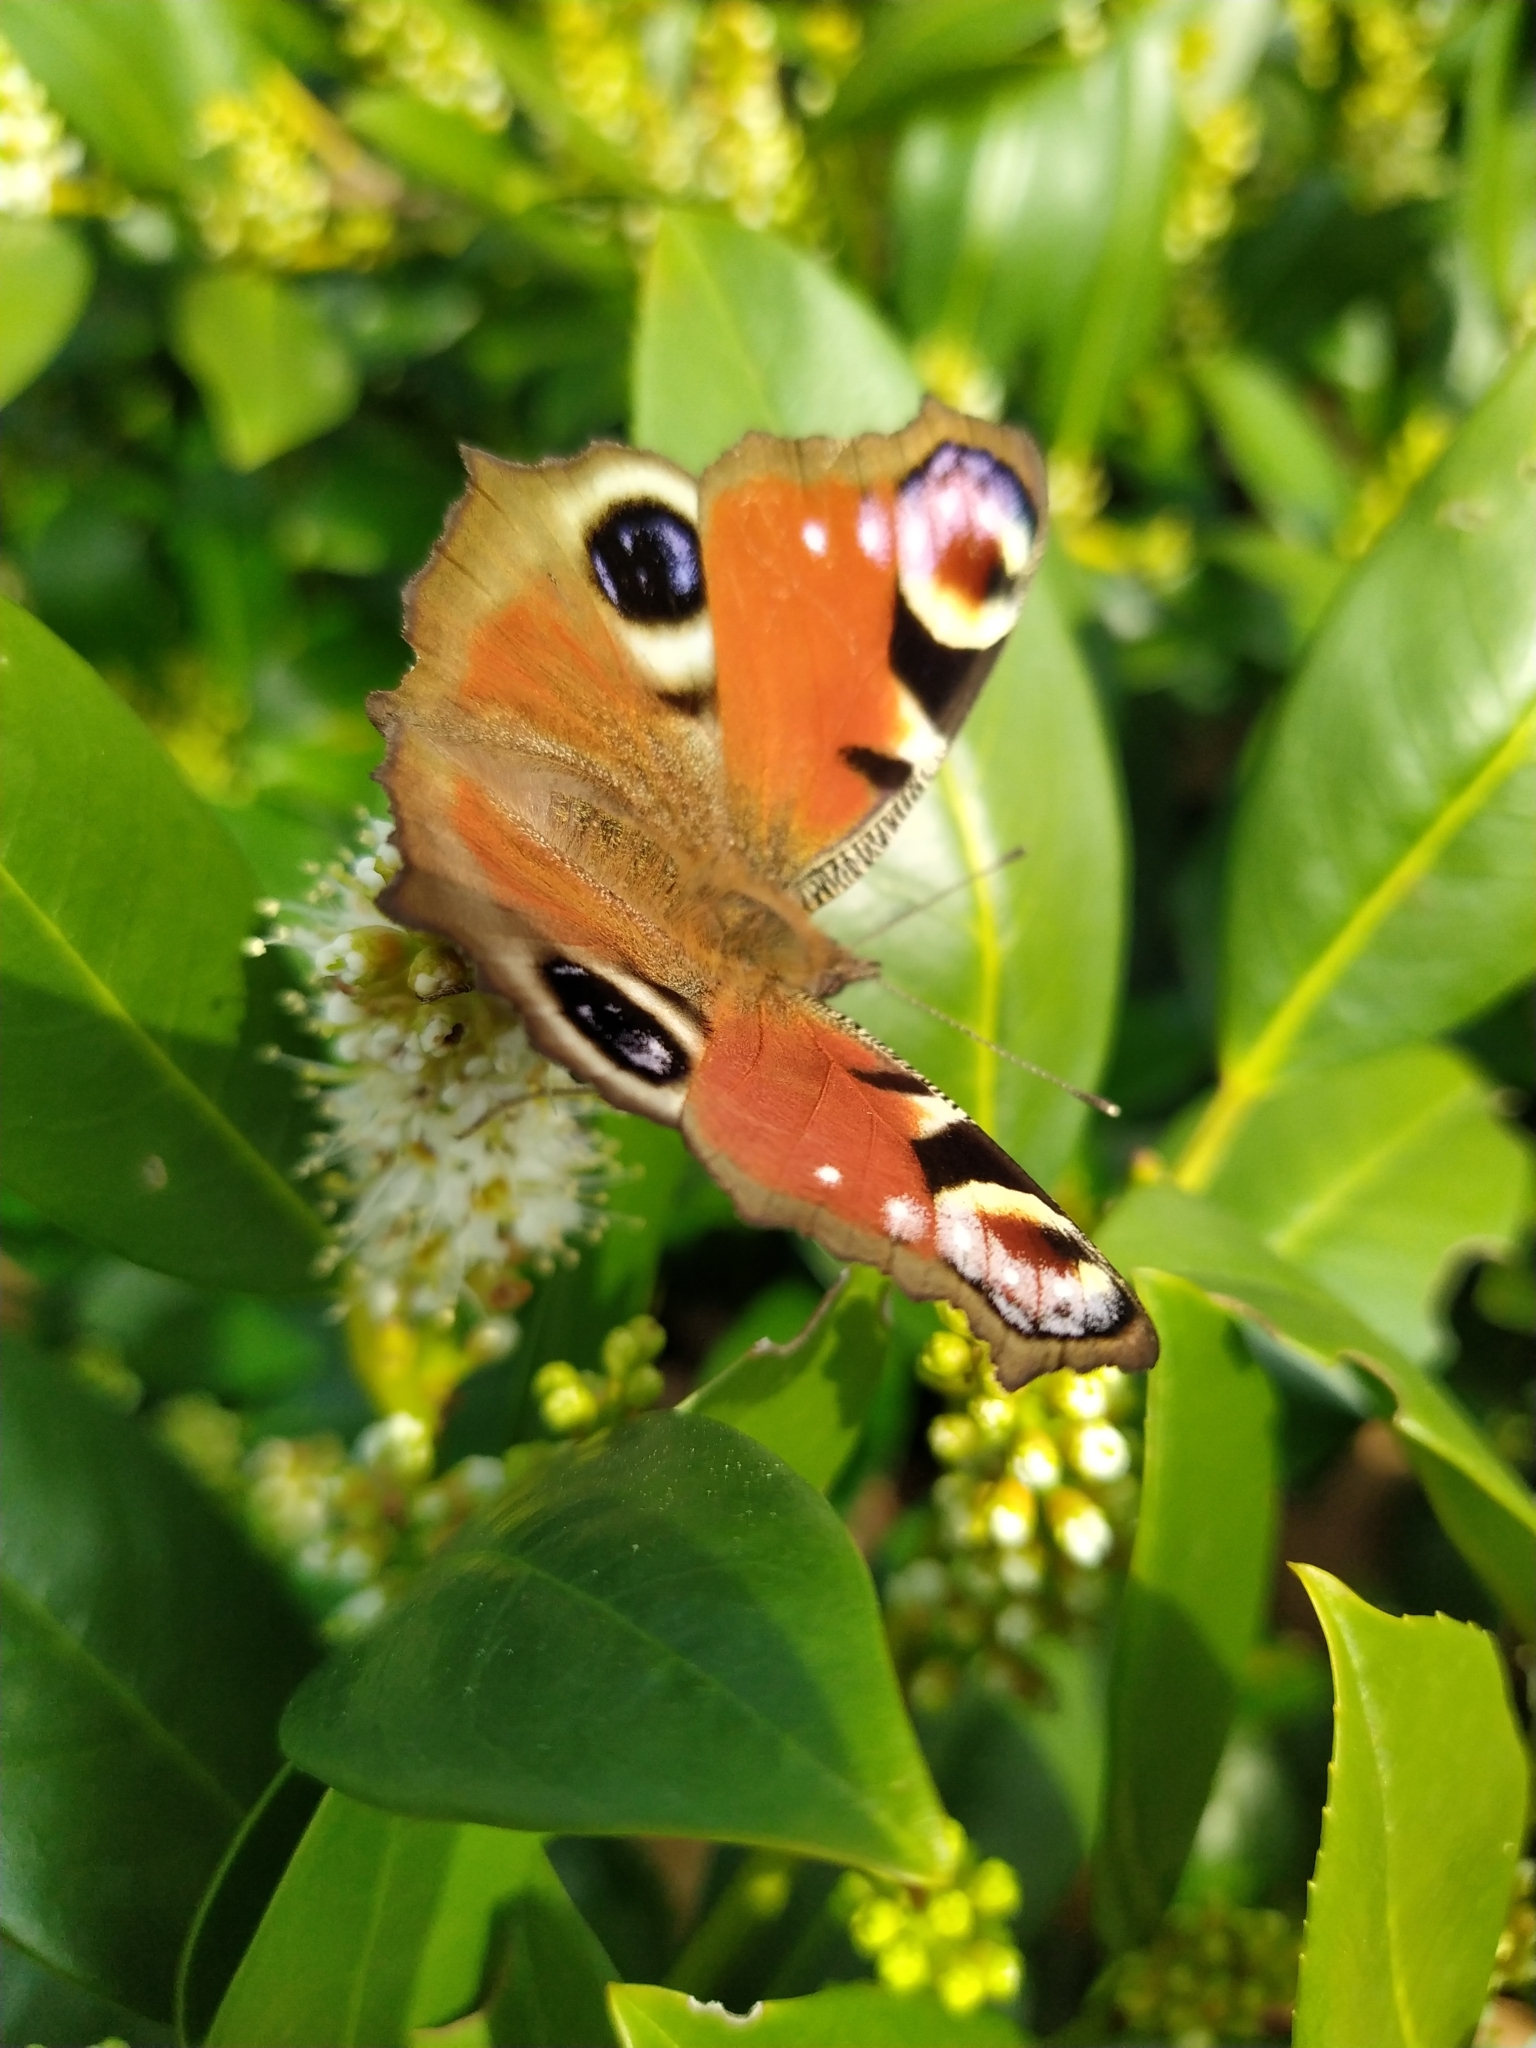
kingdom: Animalia
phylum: Arthropoda
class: Insecta
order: Lepidoptera
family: Nymphalidae
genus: Aglais
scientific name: Aglais io
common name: Peacock
